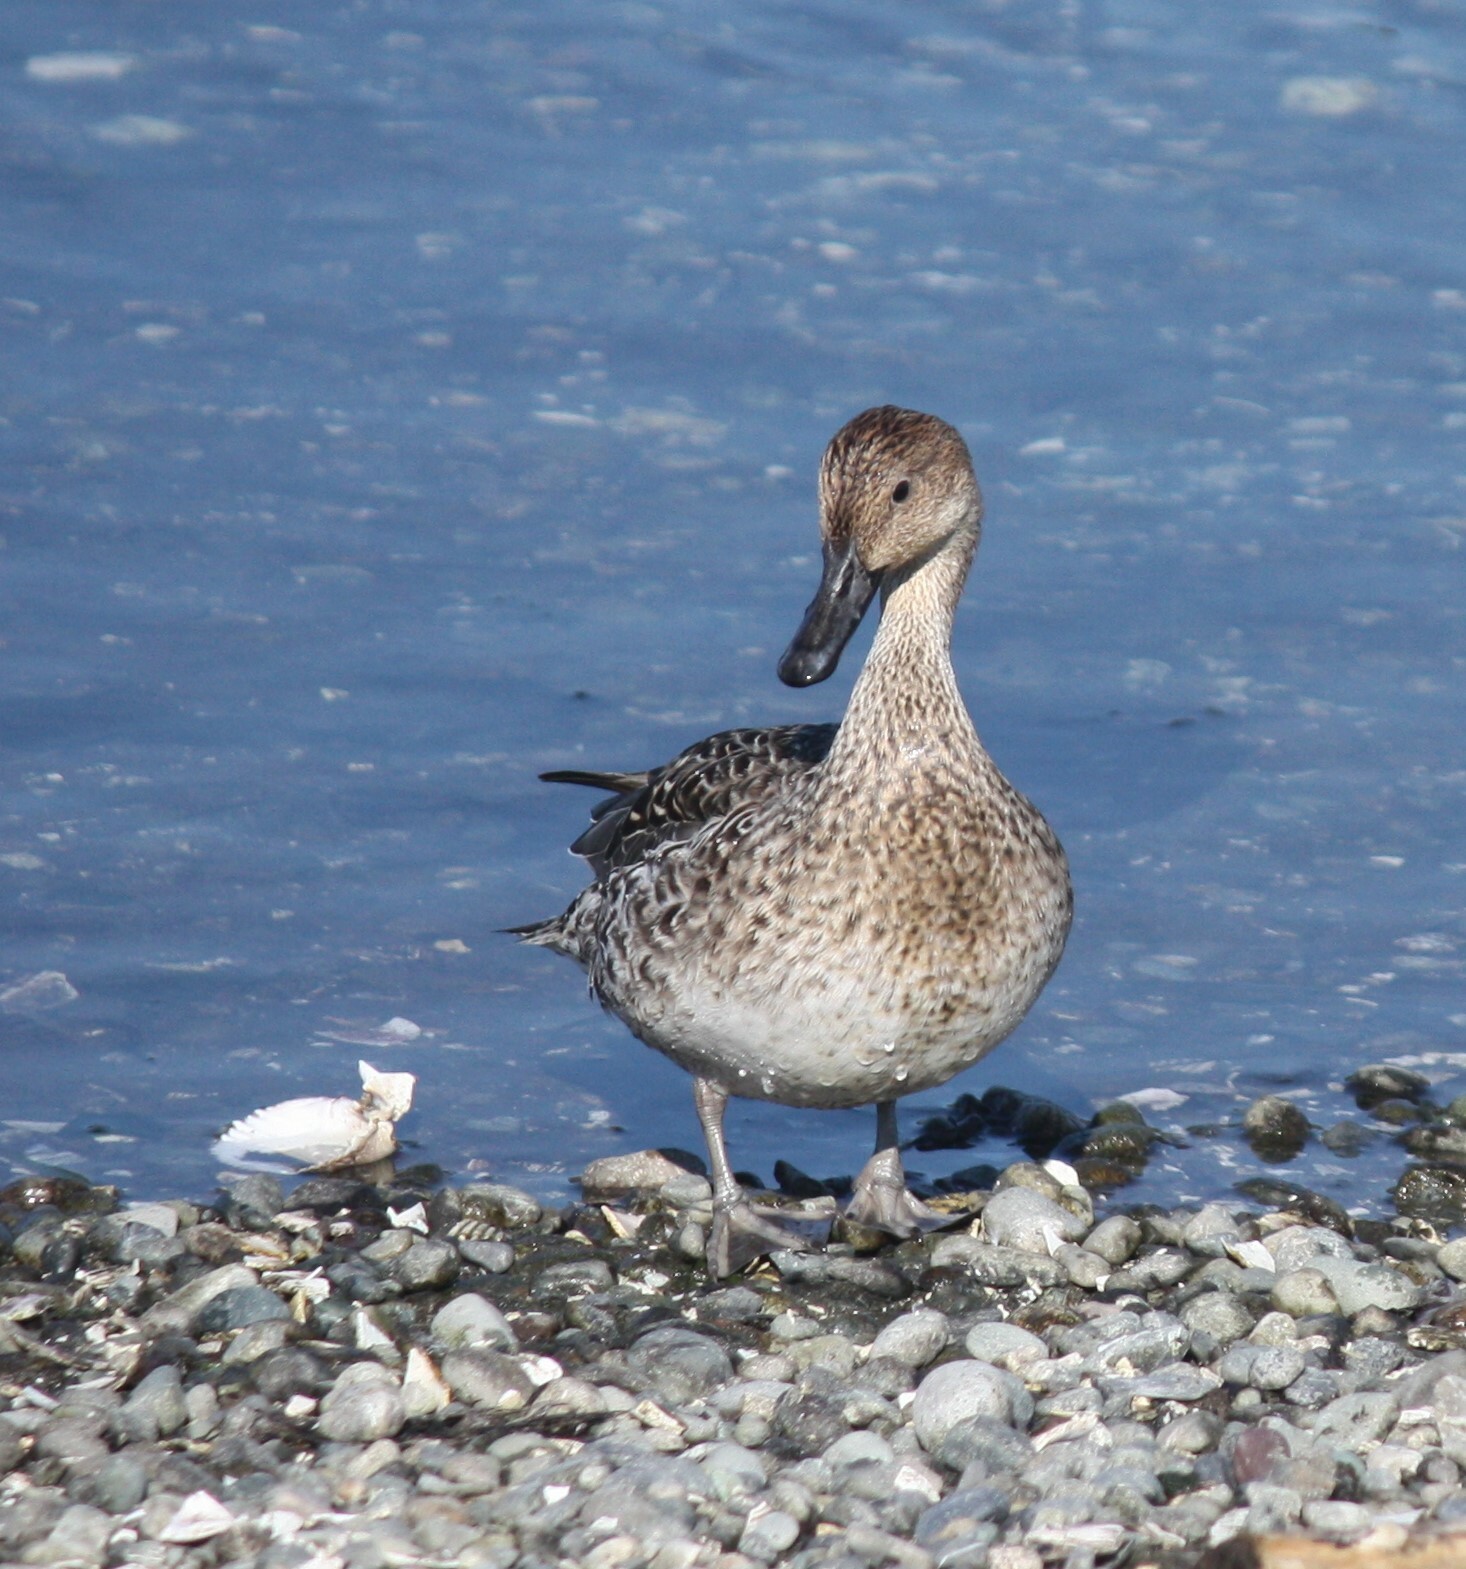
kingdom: Animalia
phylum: Chordata
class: Aves
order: Anseriformes
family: Anatidae
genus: Anas
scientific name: Anas acuta
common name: Northern pintail
